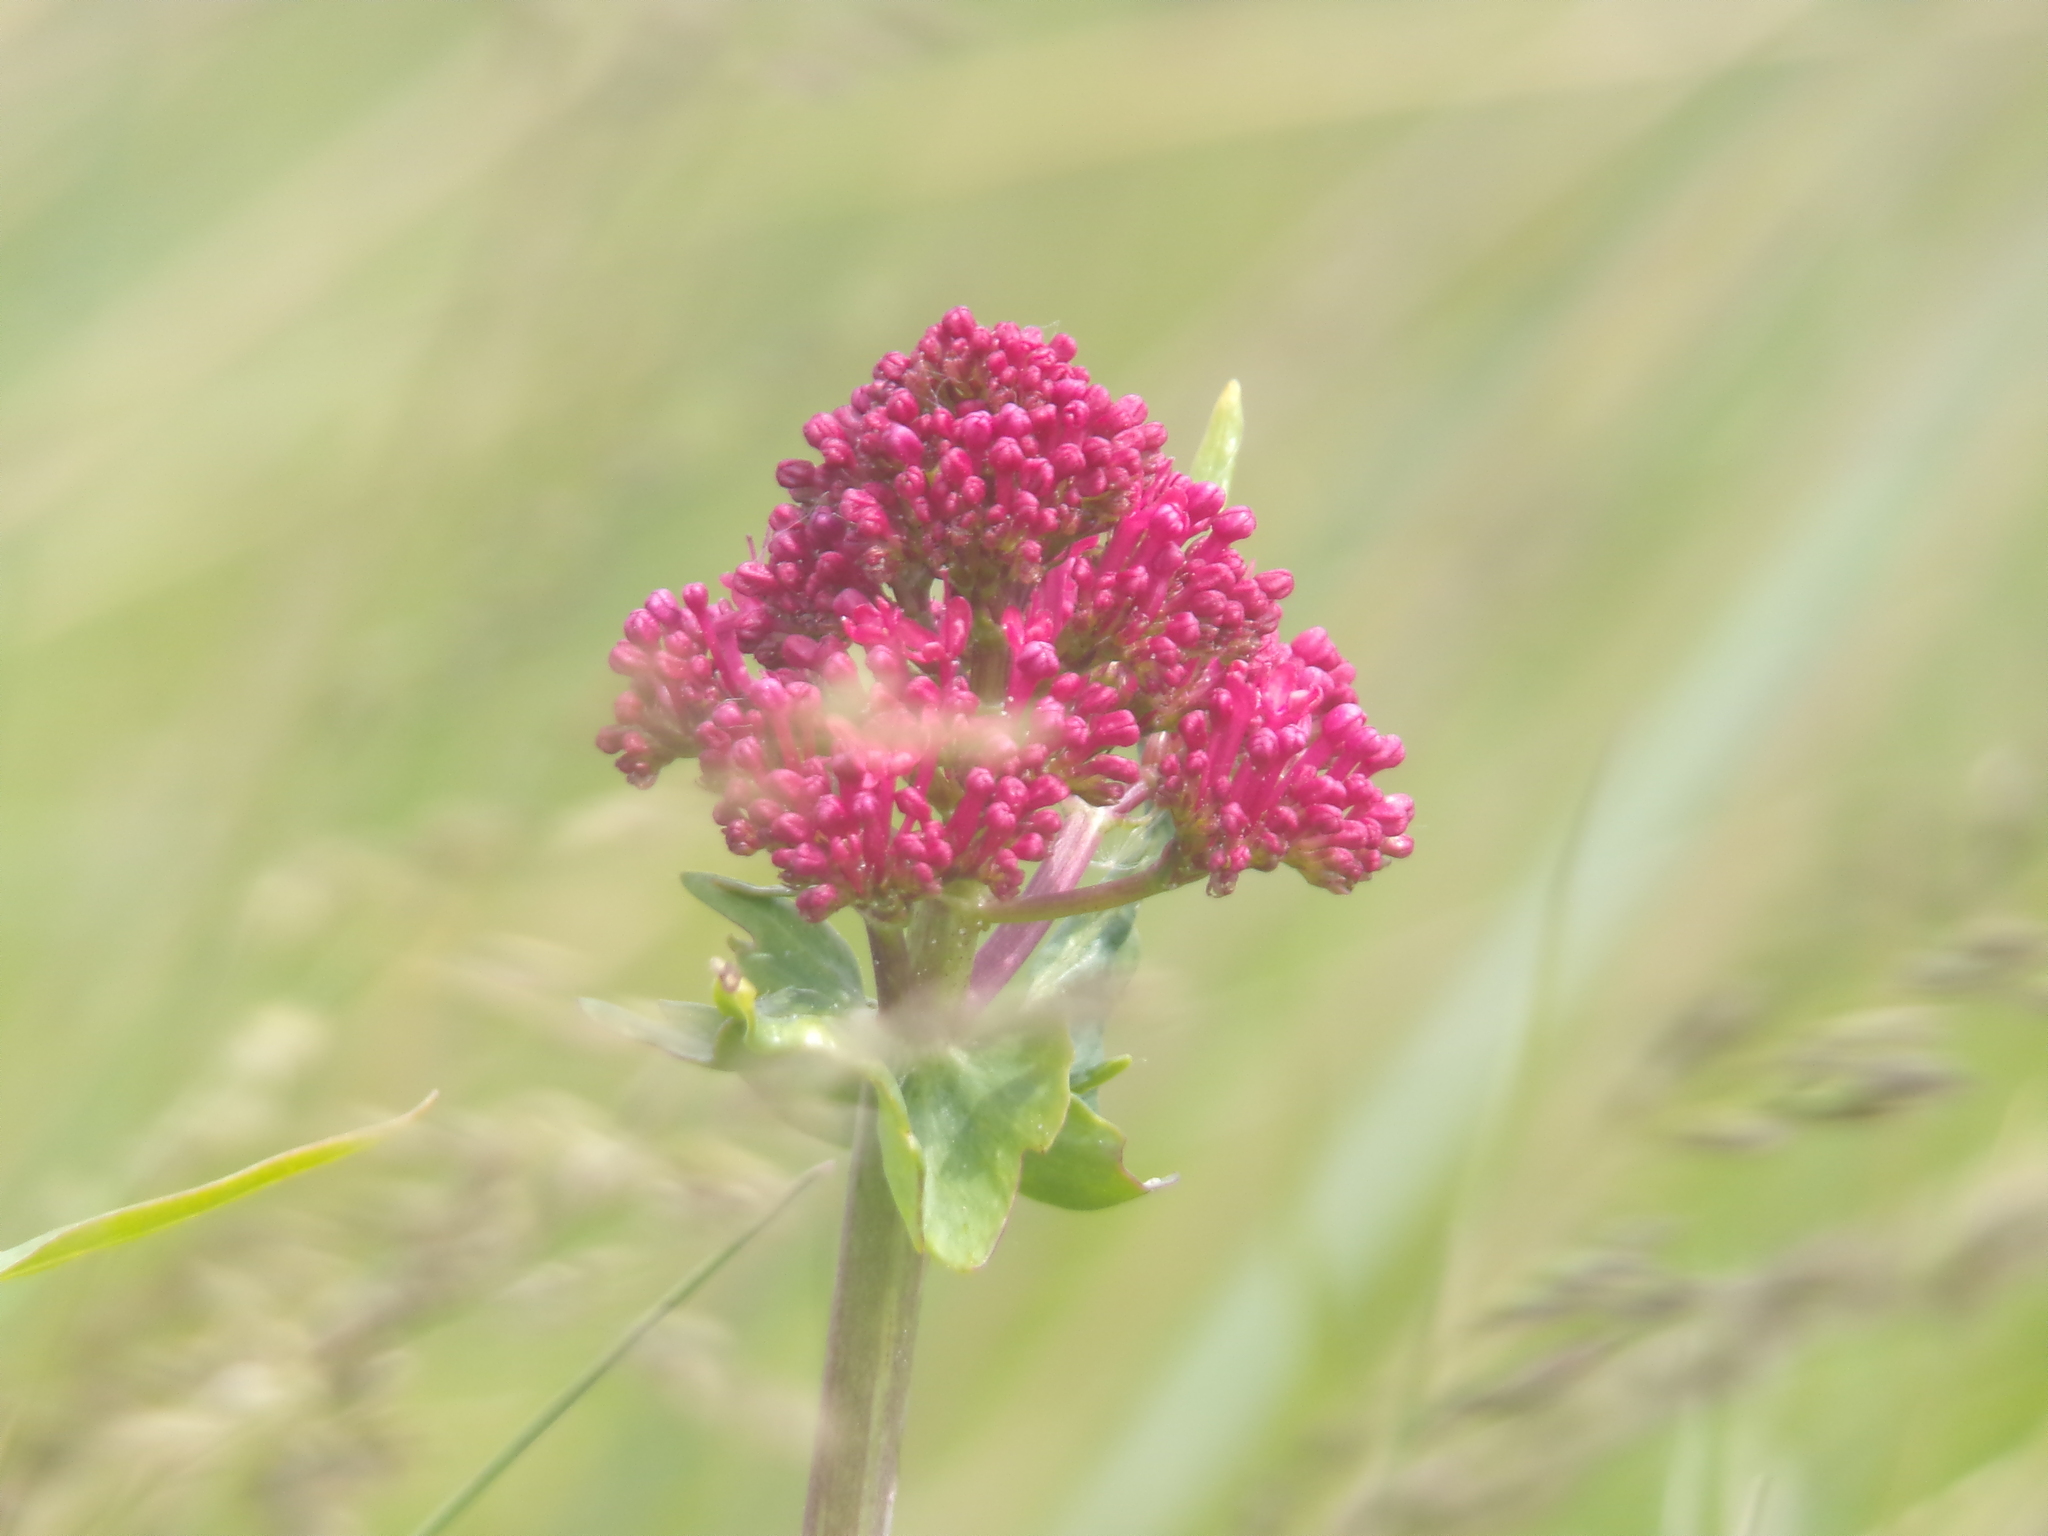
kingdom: Plantae
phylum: Tracheophyta
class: Magnoliopsida
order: Dipsacales
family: Caprifoliaceae
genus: Centranthus
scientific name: Centranthus ruber
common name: Red valerian
